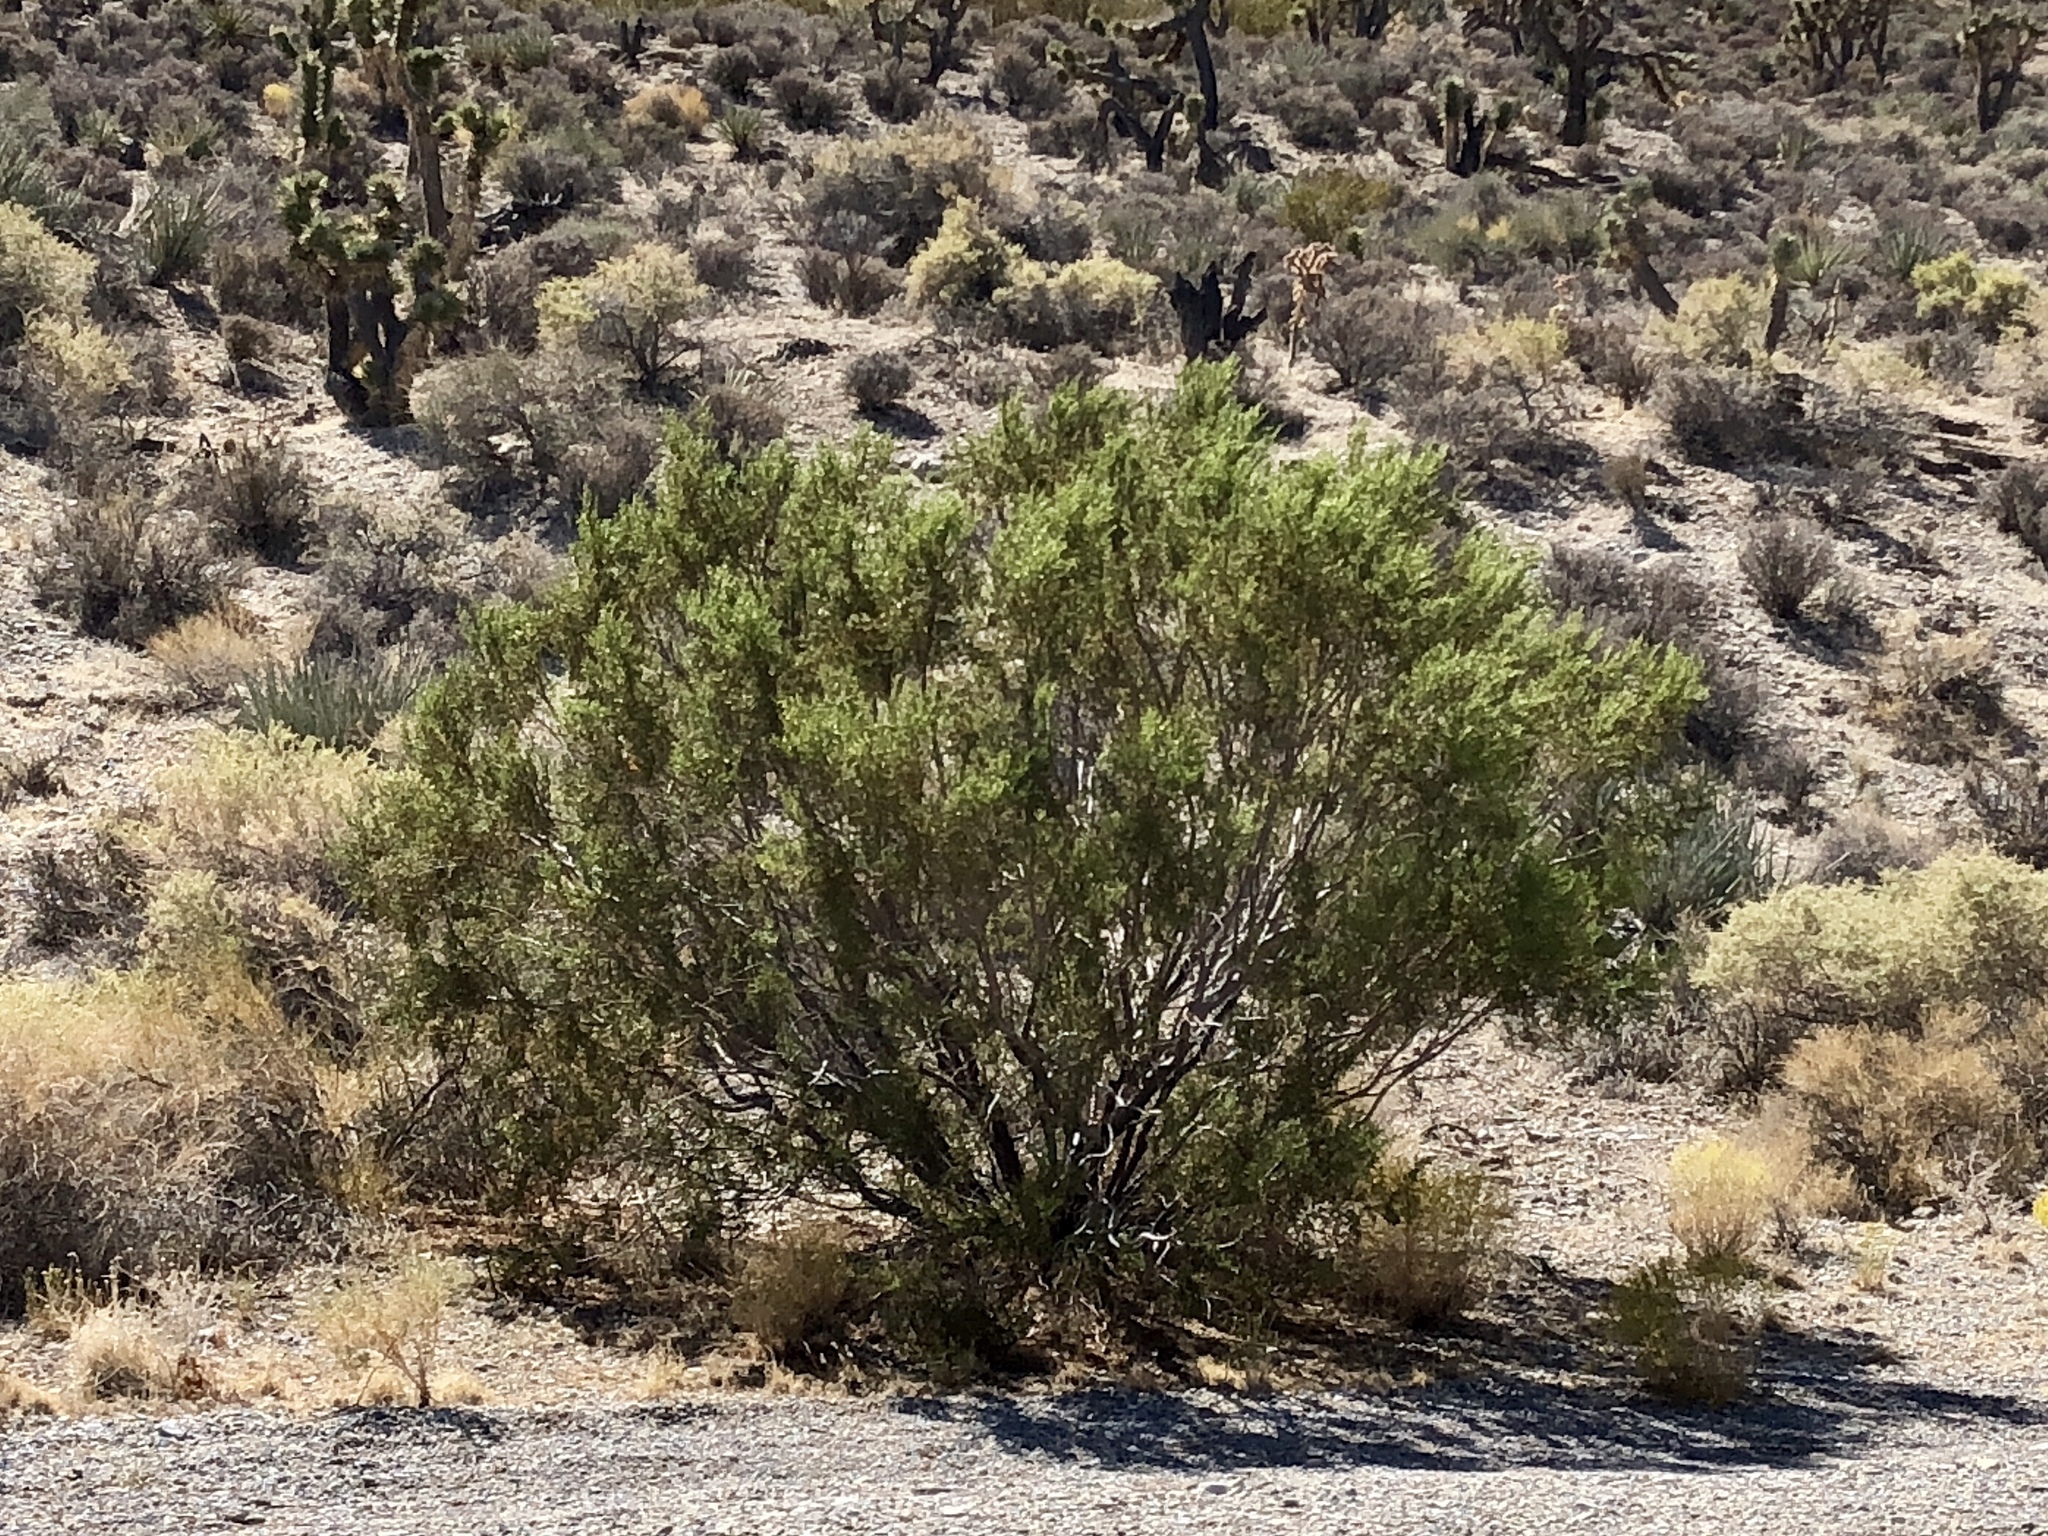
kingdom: Plantae
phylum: Tracheophyta
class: Magnoliopsida
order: Zygophyllales
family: Zygophyllaceae
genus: Larrea
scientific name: Larrea tridentata
